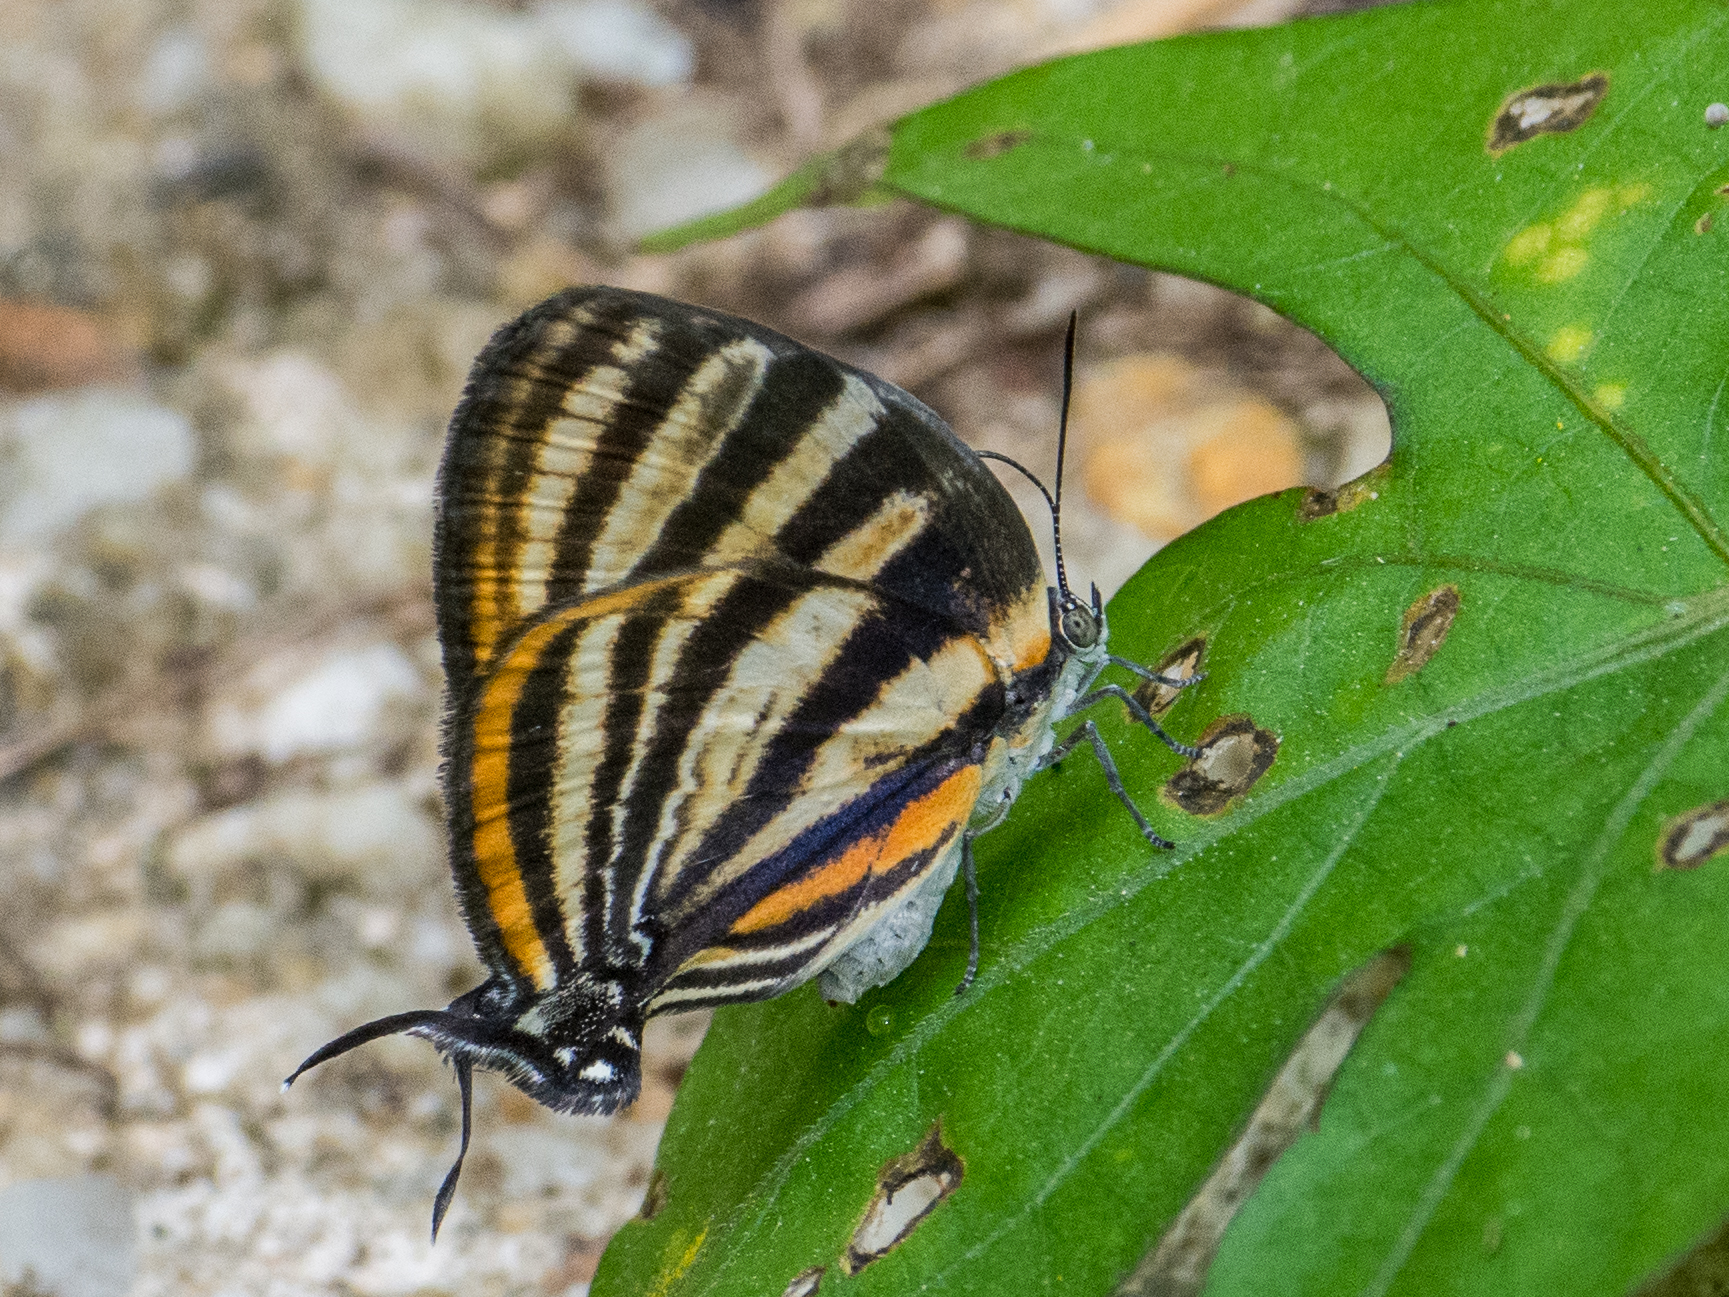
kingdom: Animalia
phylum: Arthropoda
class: Insecta
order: Lepidoptera
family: Lycaenidae
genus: Thecla
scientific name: Thecla aetolus
